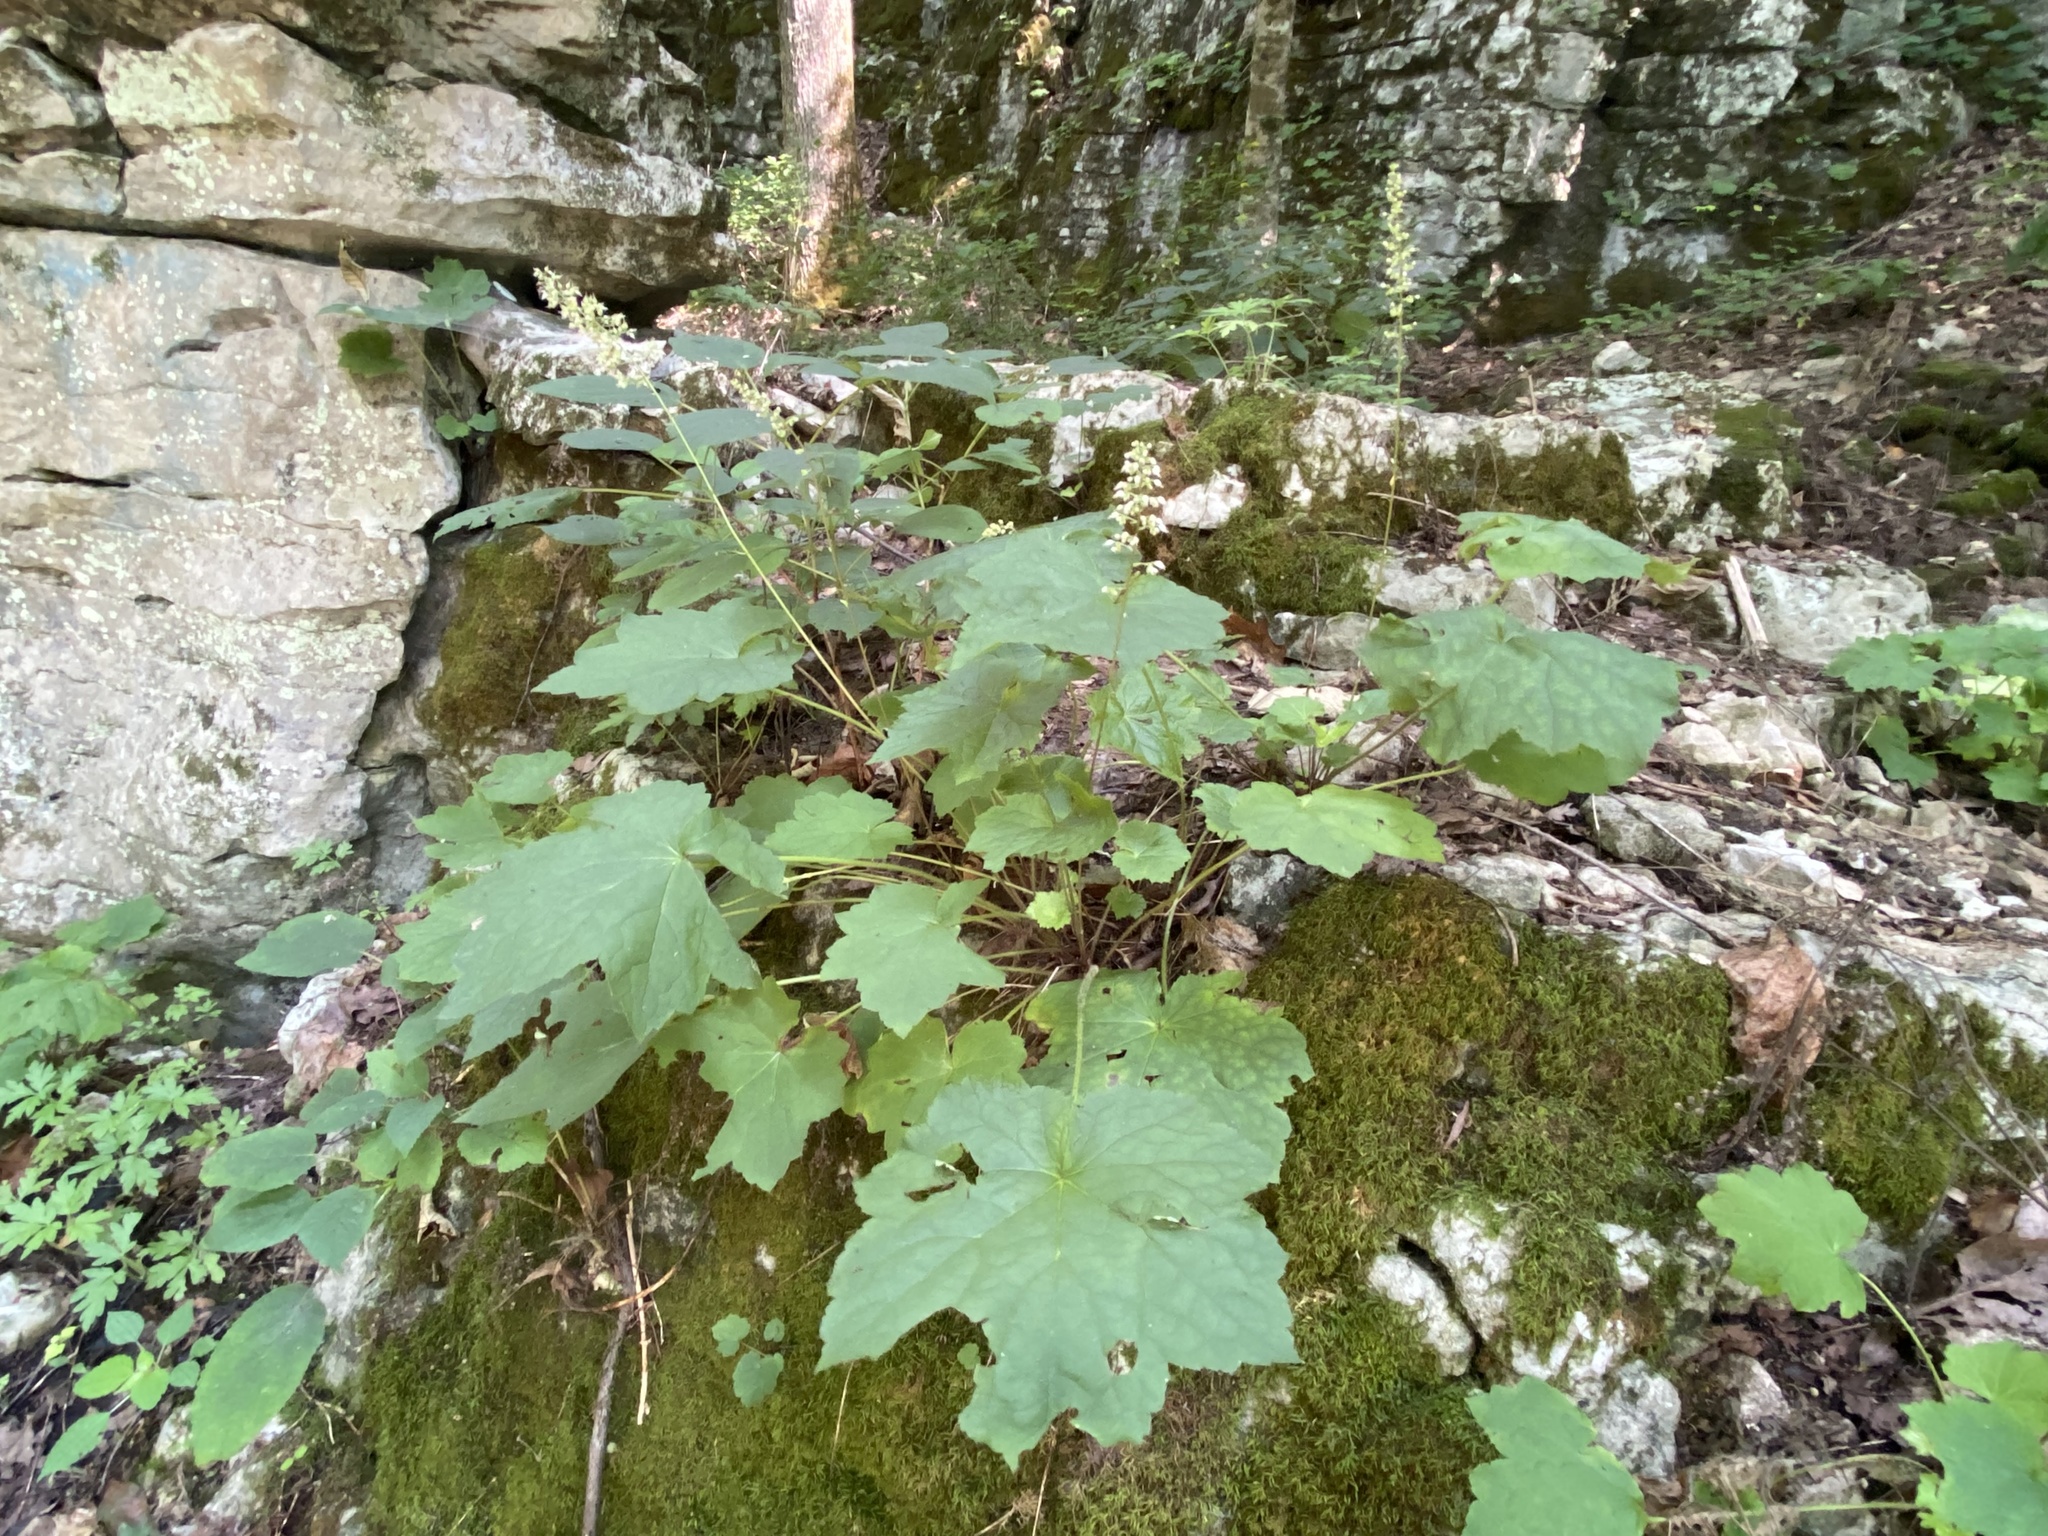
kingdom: Plantae
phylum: Tracheophyta
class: Magnoliopsida
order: Saxifragales
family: Saxifragaceae
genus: Heuchera
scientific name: Heuchera villosa
